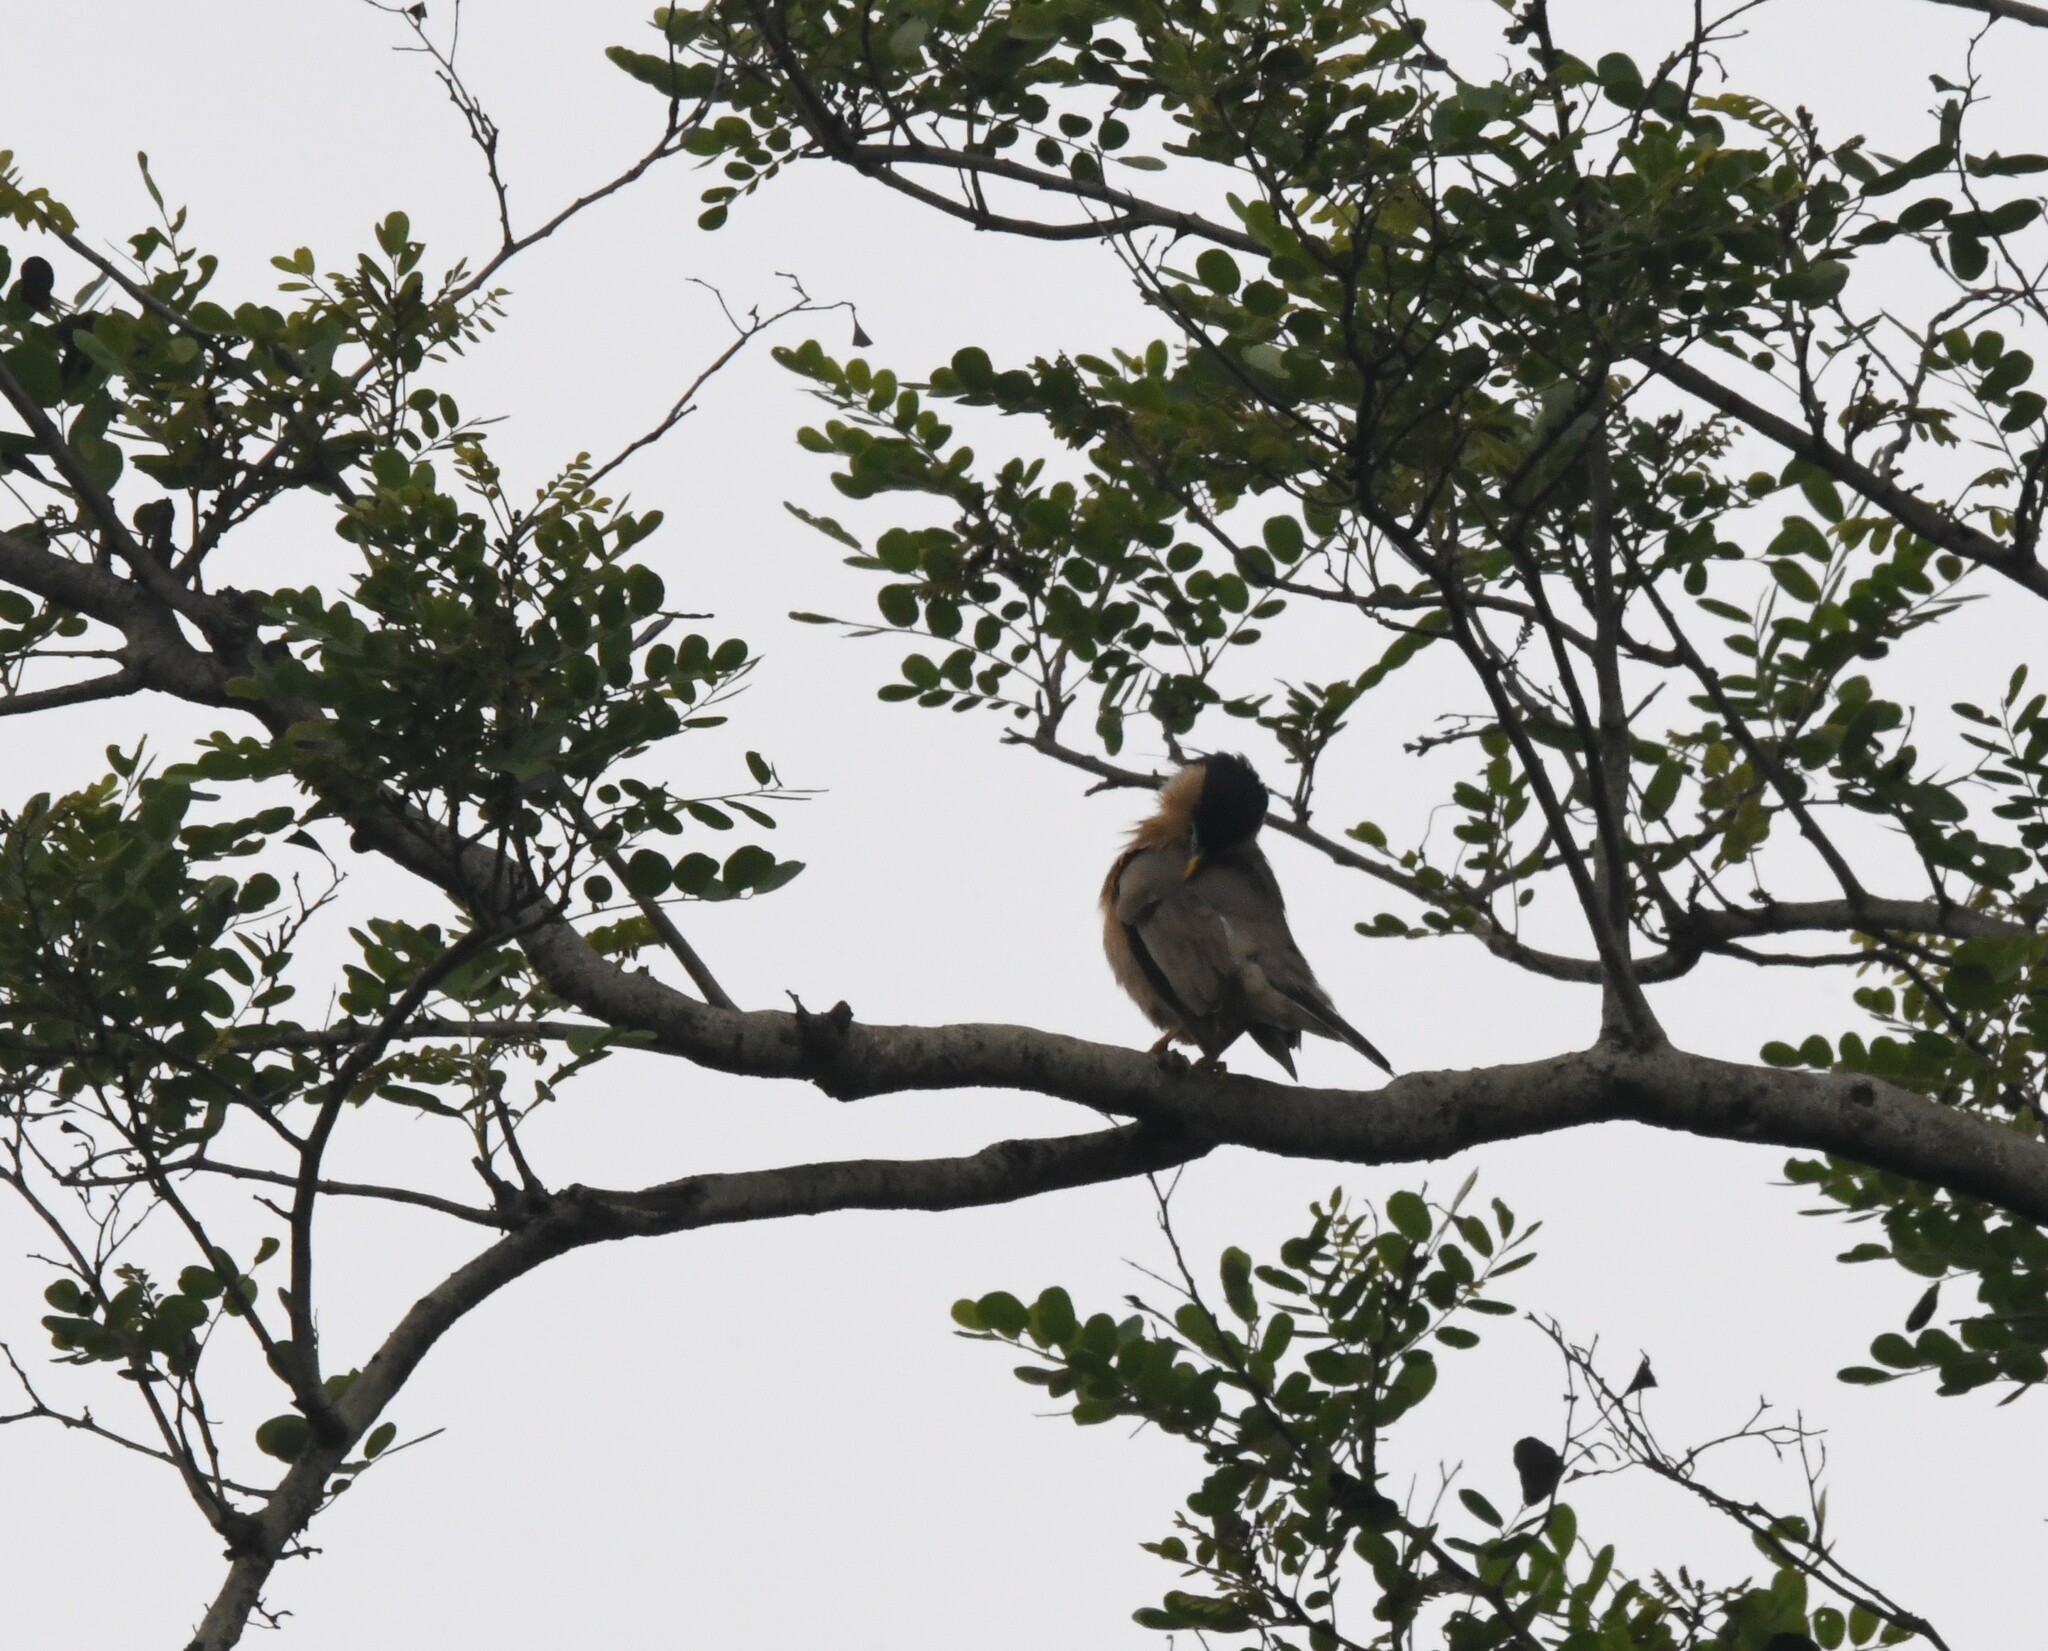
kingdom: Animalia
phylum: Chordata
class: Aves
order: Passeriformes
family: Sturnidae
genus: Sturnia
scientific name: Sturnia pagodarum
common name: Brahminy starling
